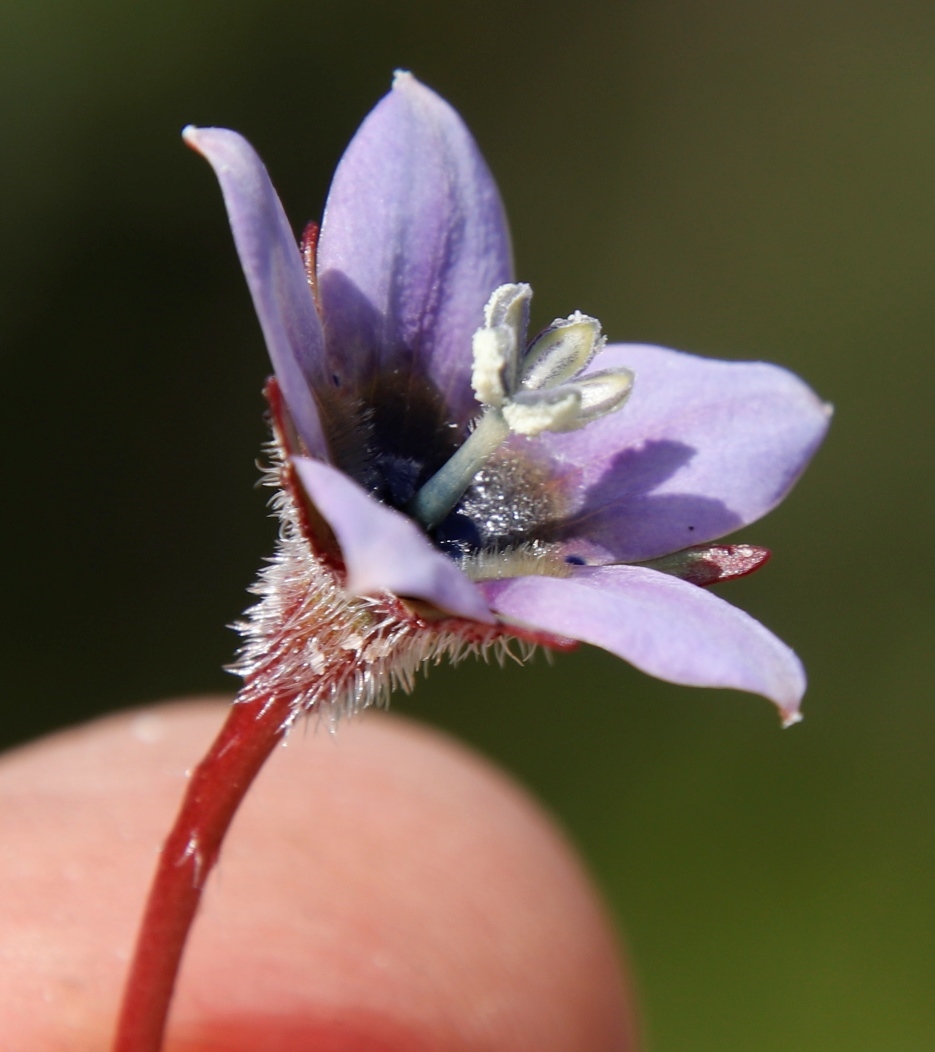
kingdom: Plantae
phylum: Tracheophyta
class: Magnoliopsida
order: Asterales
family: Campanulaceae
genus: Wahlenbergia
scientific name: Wahlenbergia capensis
